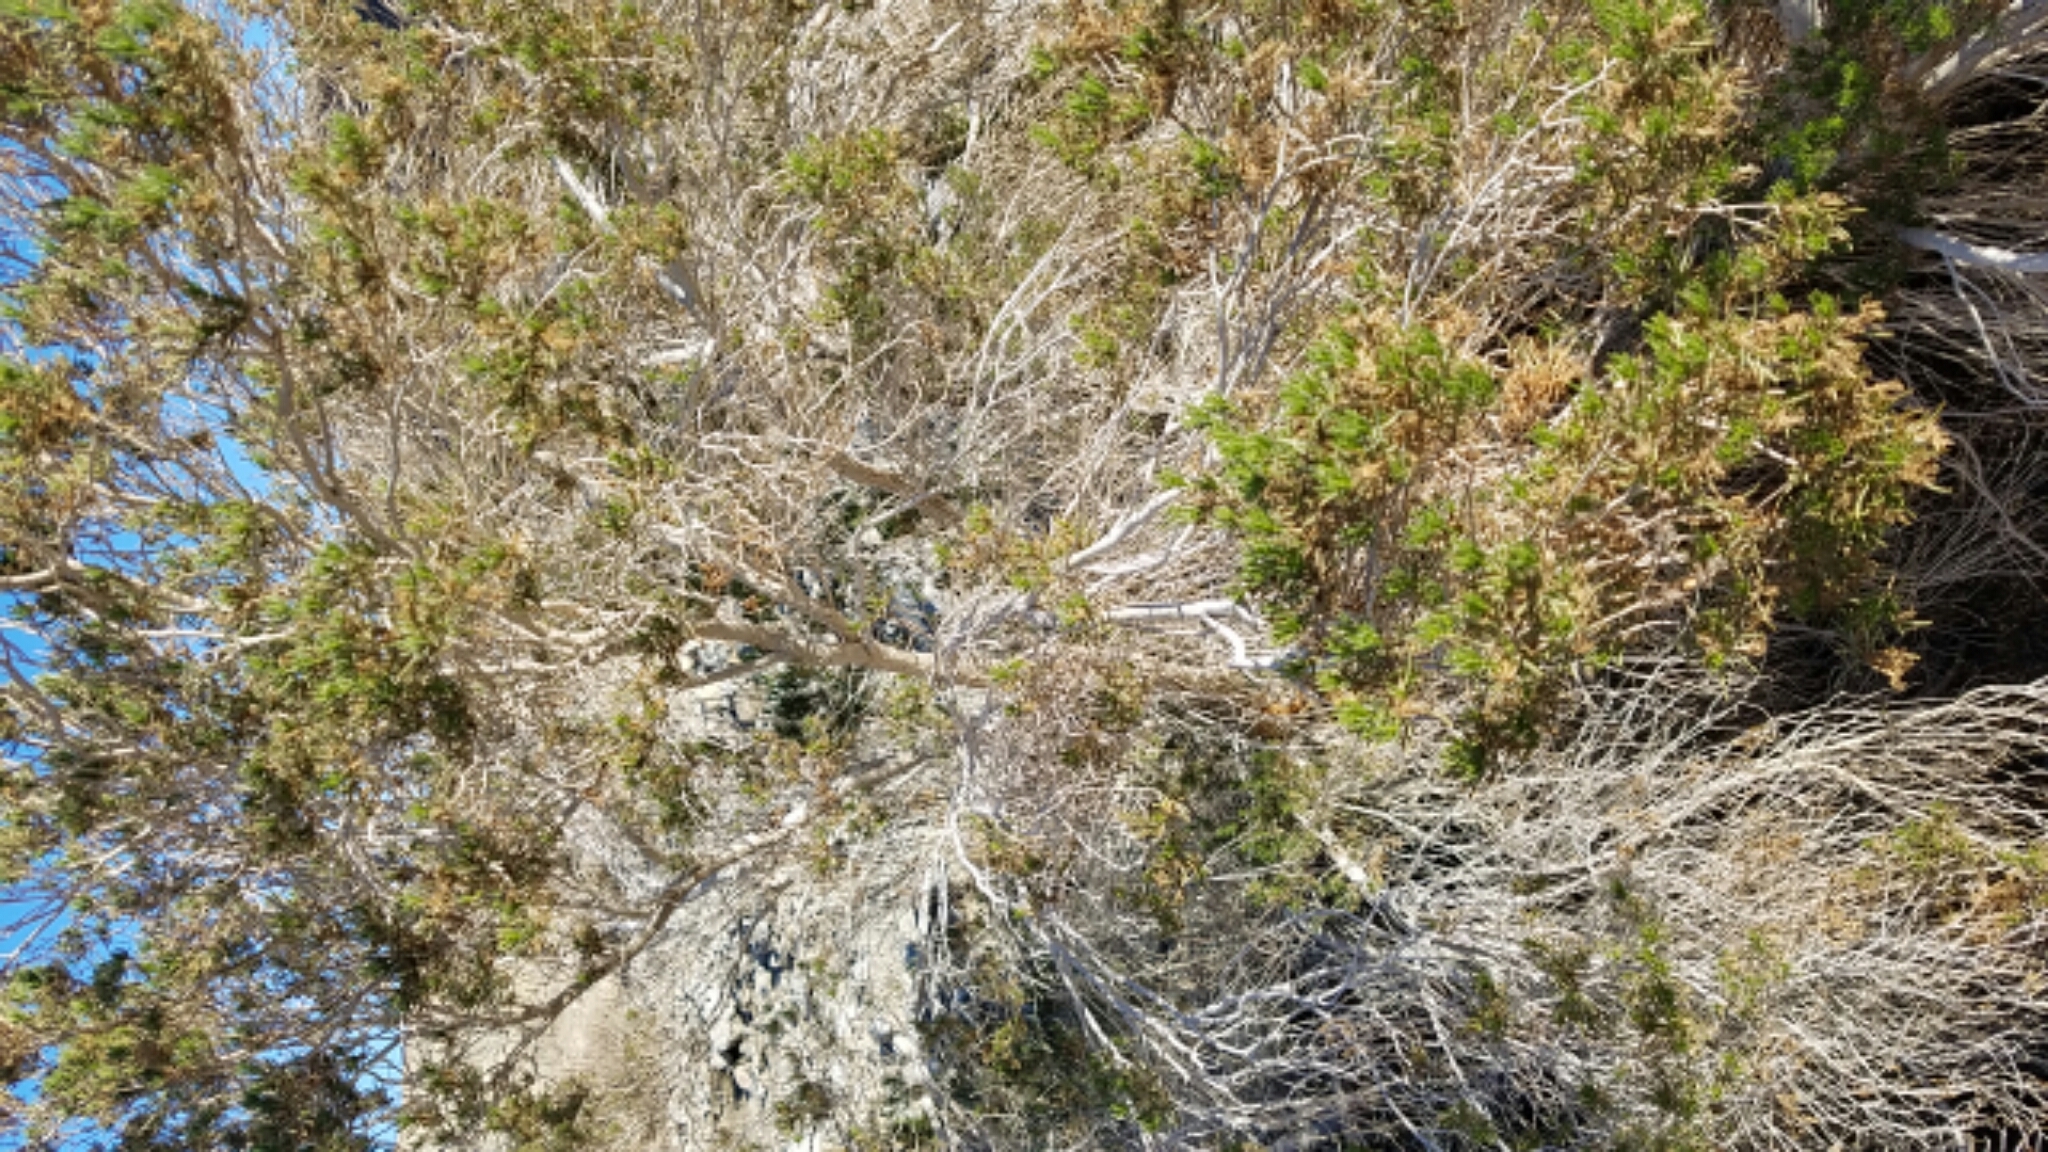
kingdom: Plantae
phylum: Tracheophyta
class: Magnoliopsida
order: Asterales
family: Asteraceae
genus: Peucephyllum
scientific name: Peucephyllum schottii
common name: Pygmy-cedar
